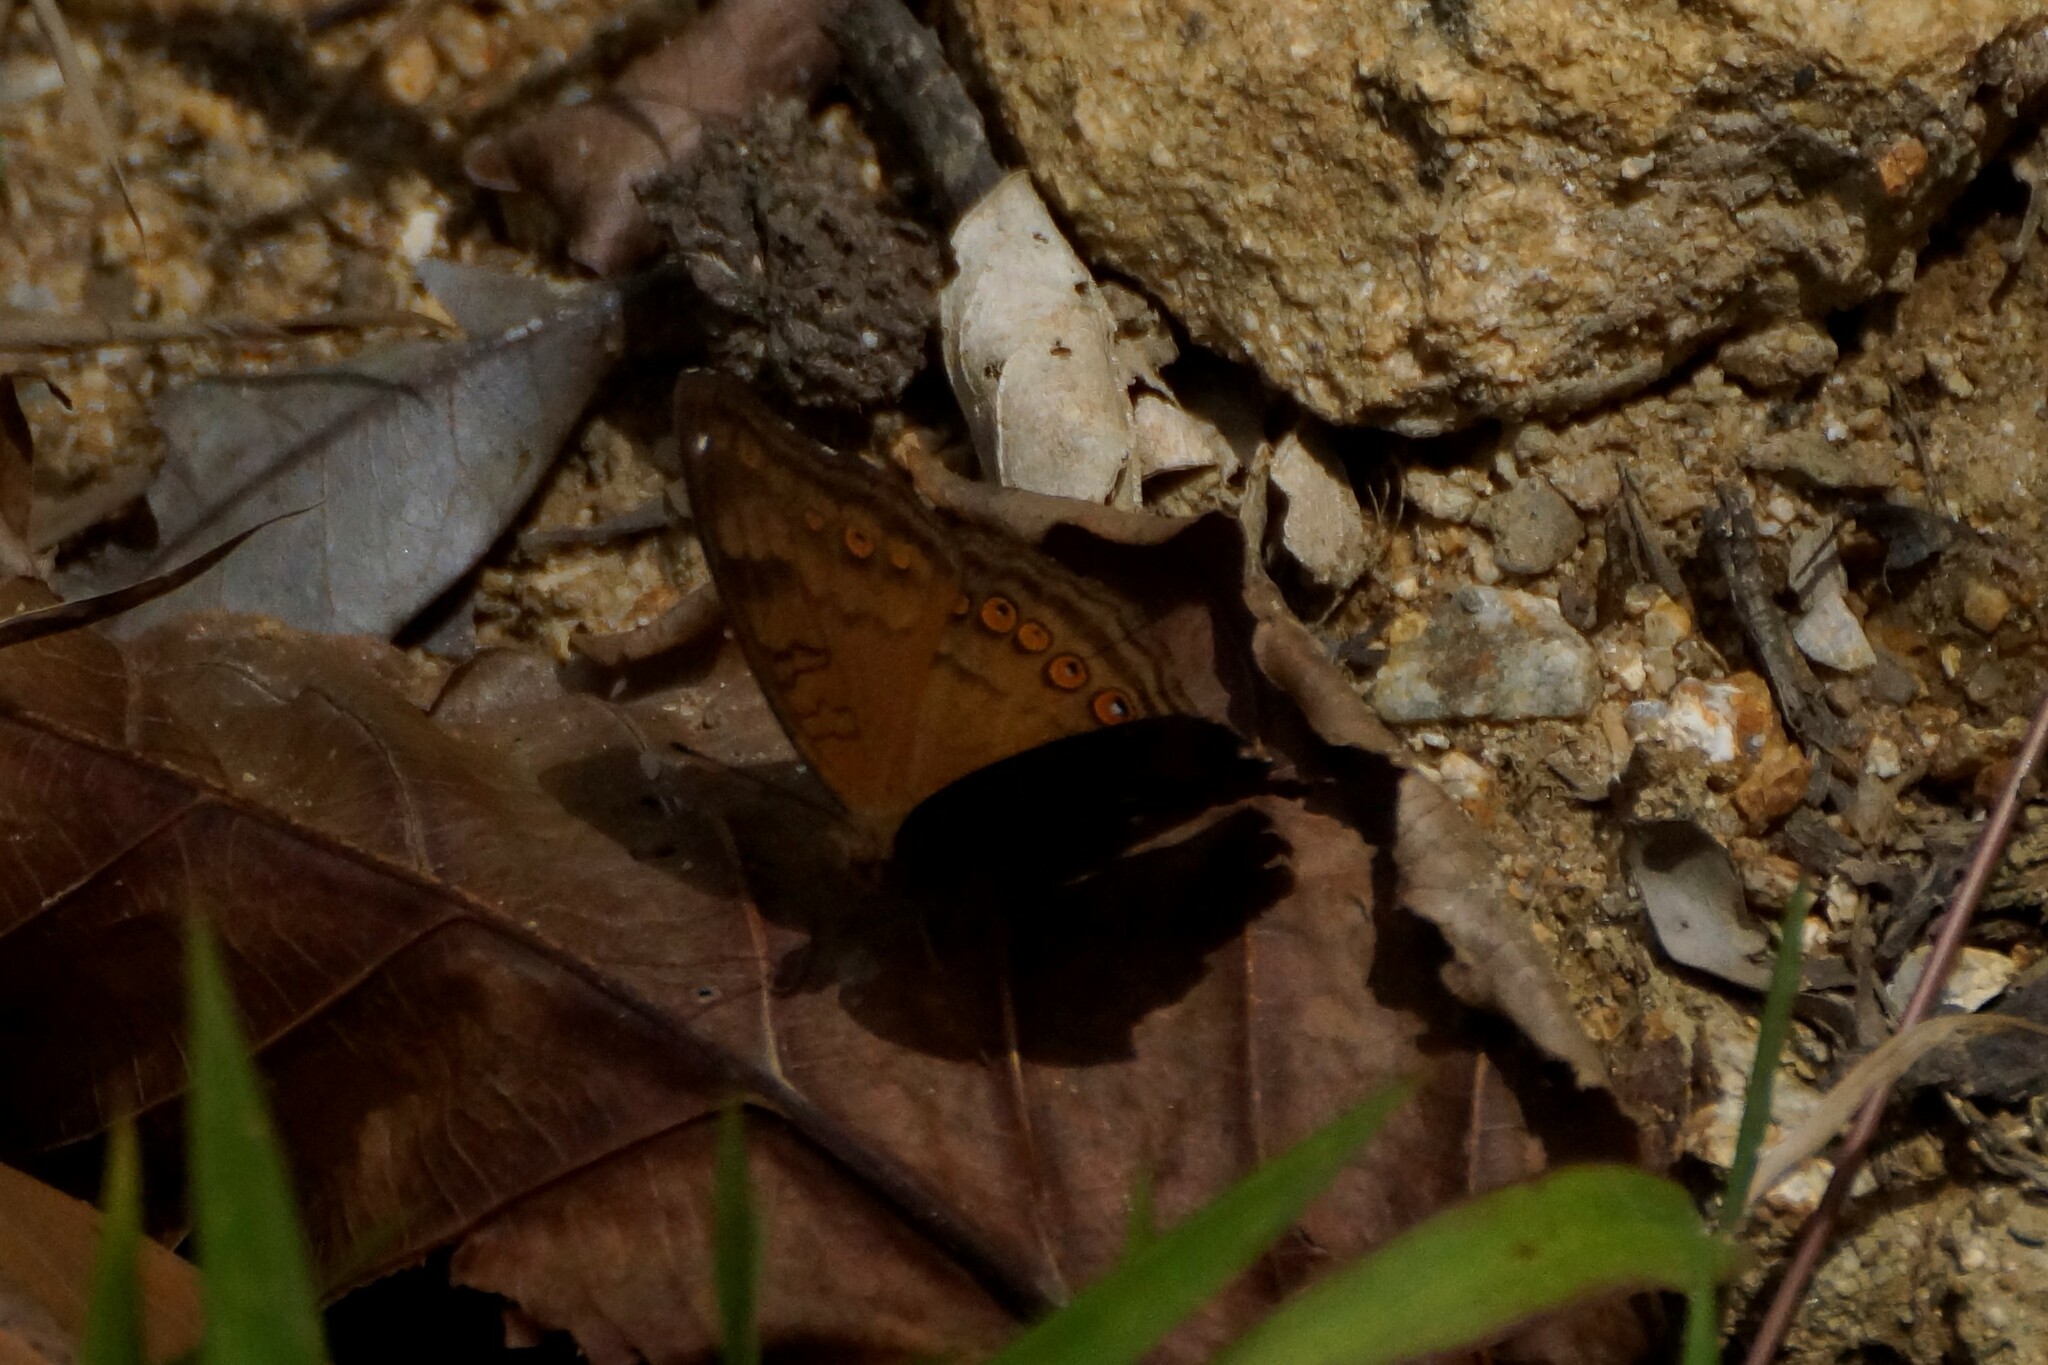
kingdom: Animalia
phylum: Arthropoda
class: Insecta
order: Lepidoptera
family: Nymphalidae
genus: Junonia
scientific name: Junonia hedonia
